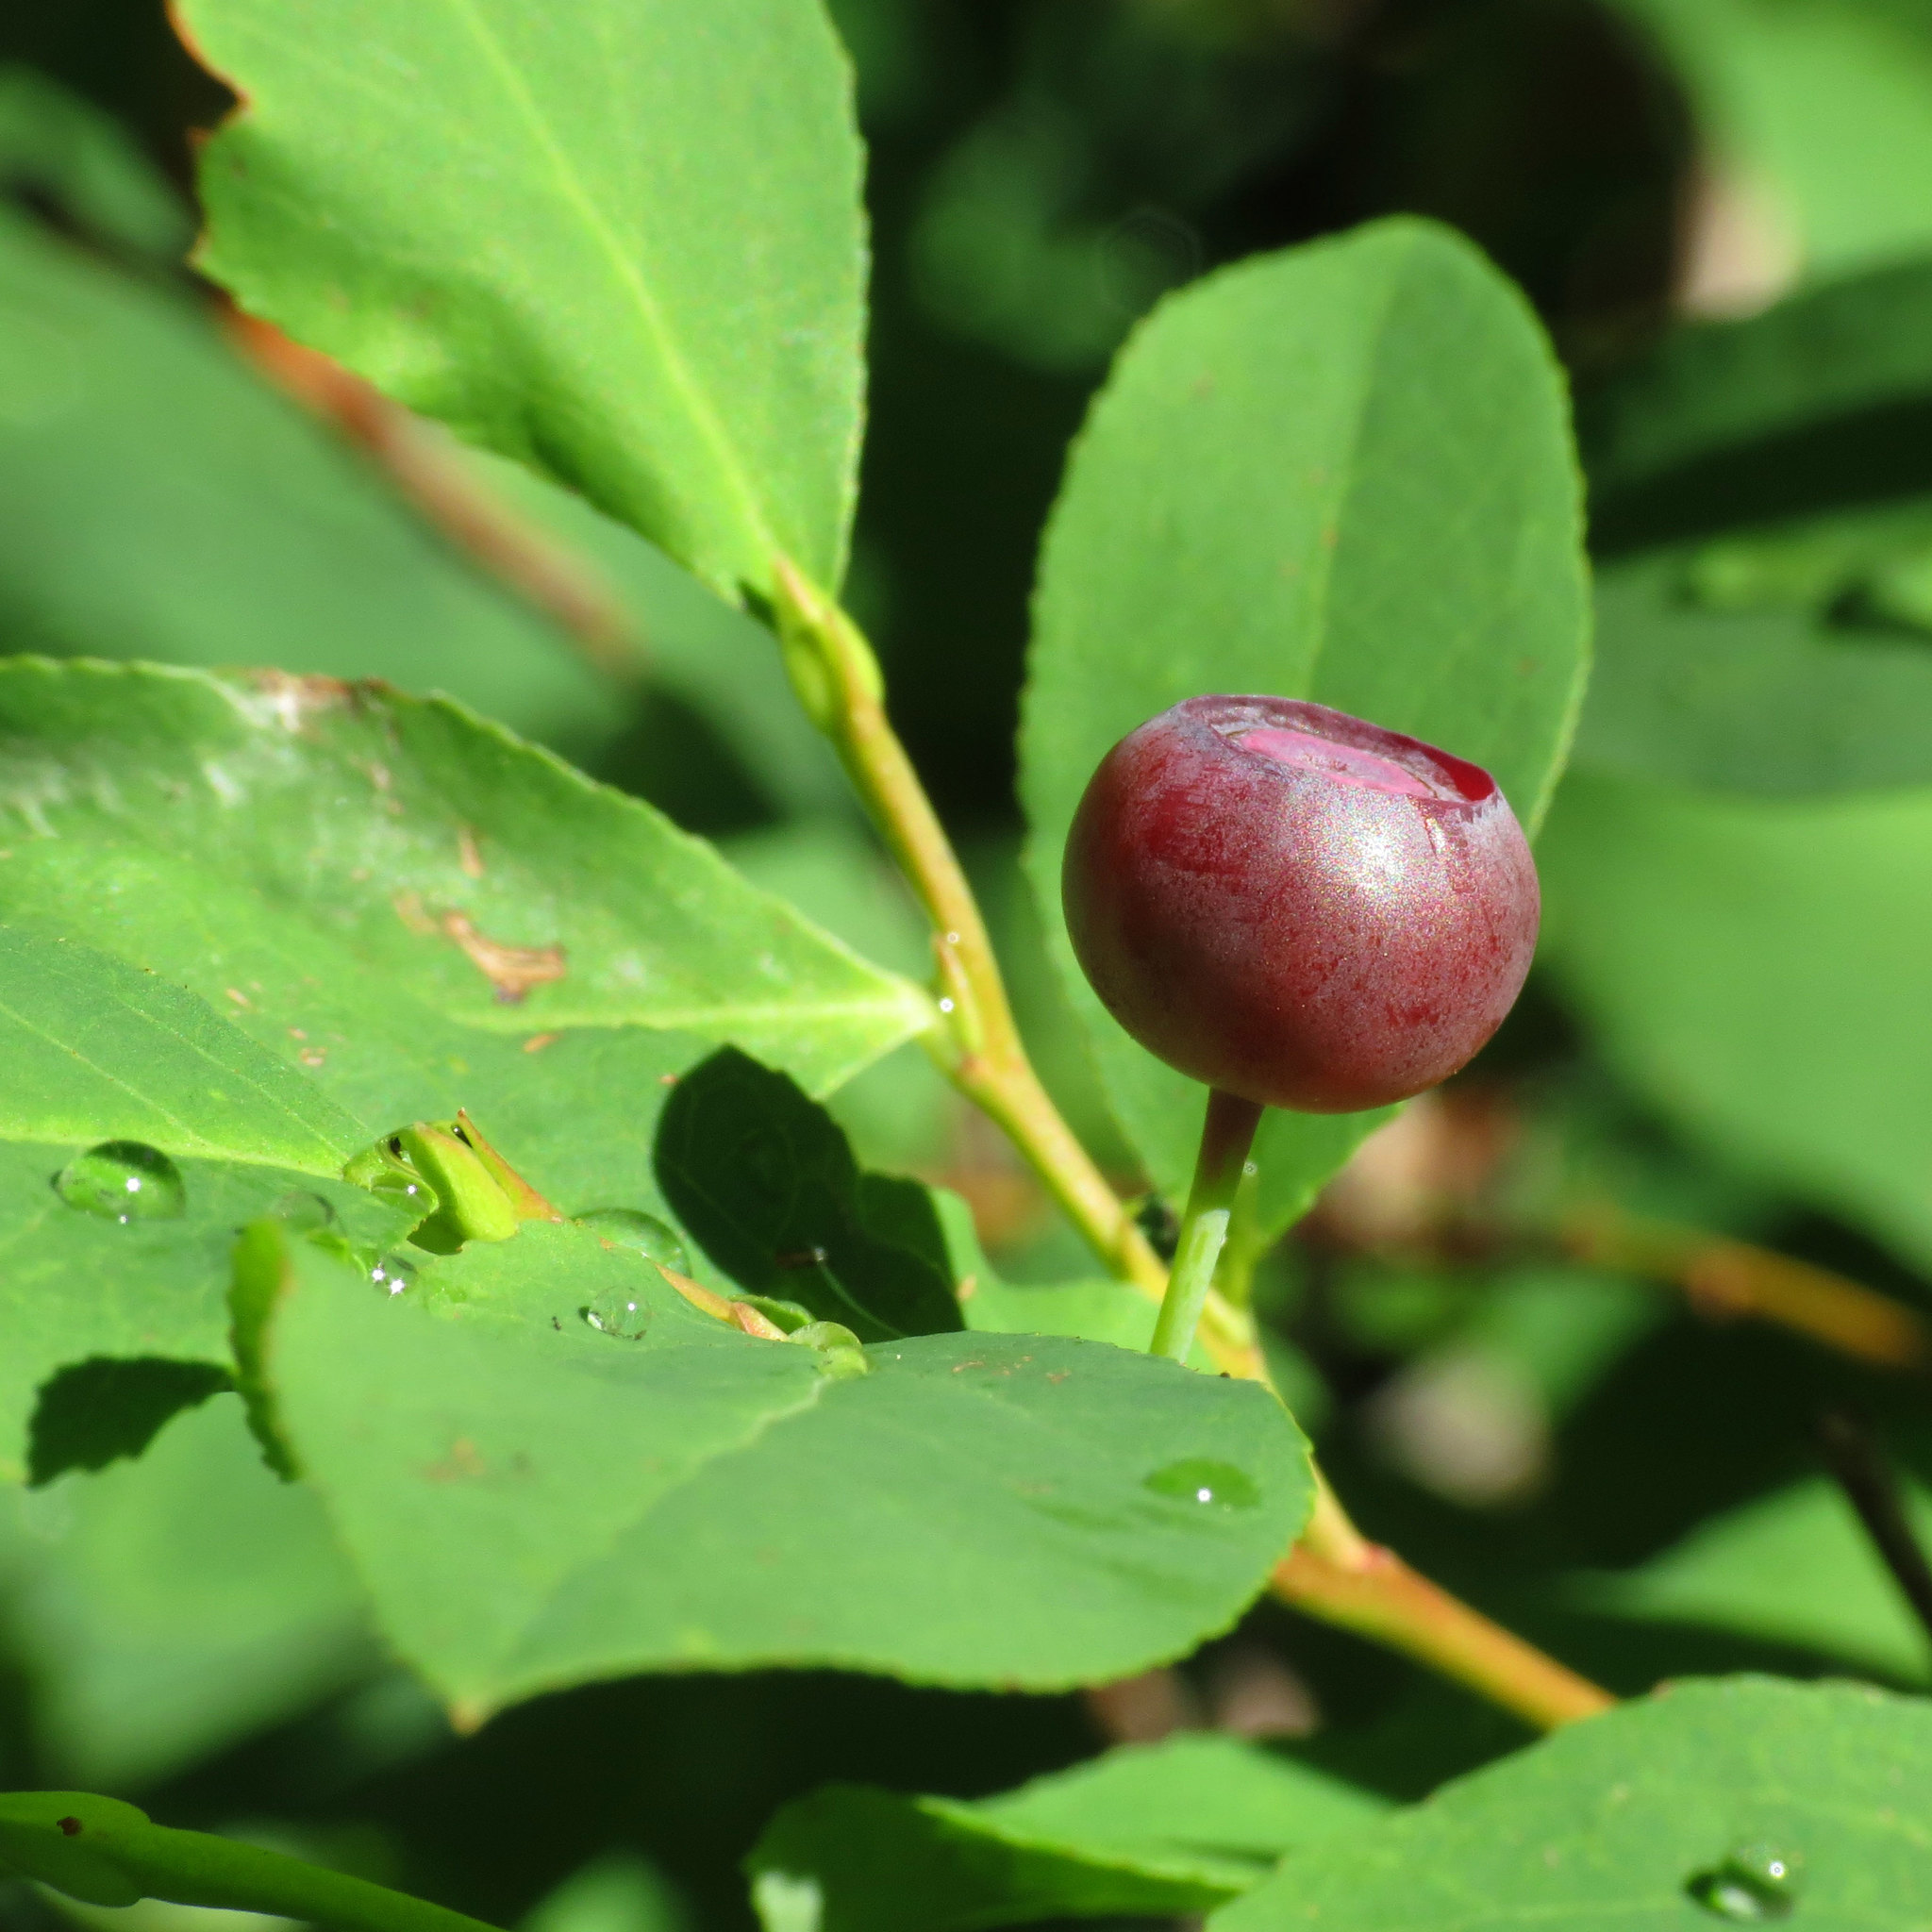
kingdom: Plantae
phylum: Tracheophyta
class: Magnoliopsida
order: Ericales
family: Ericaceae
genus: Vaccinium
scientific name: Vaccinium membranaceum
